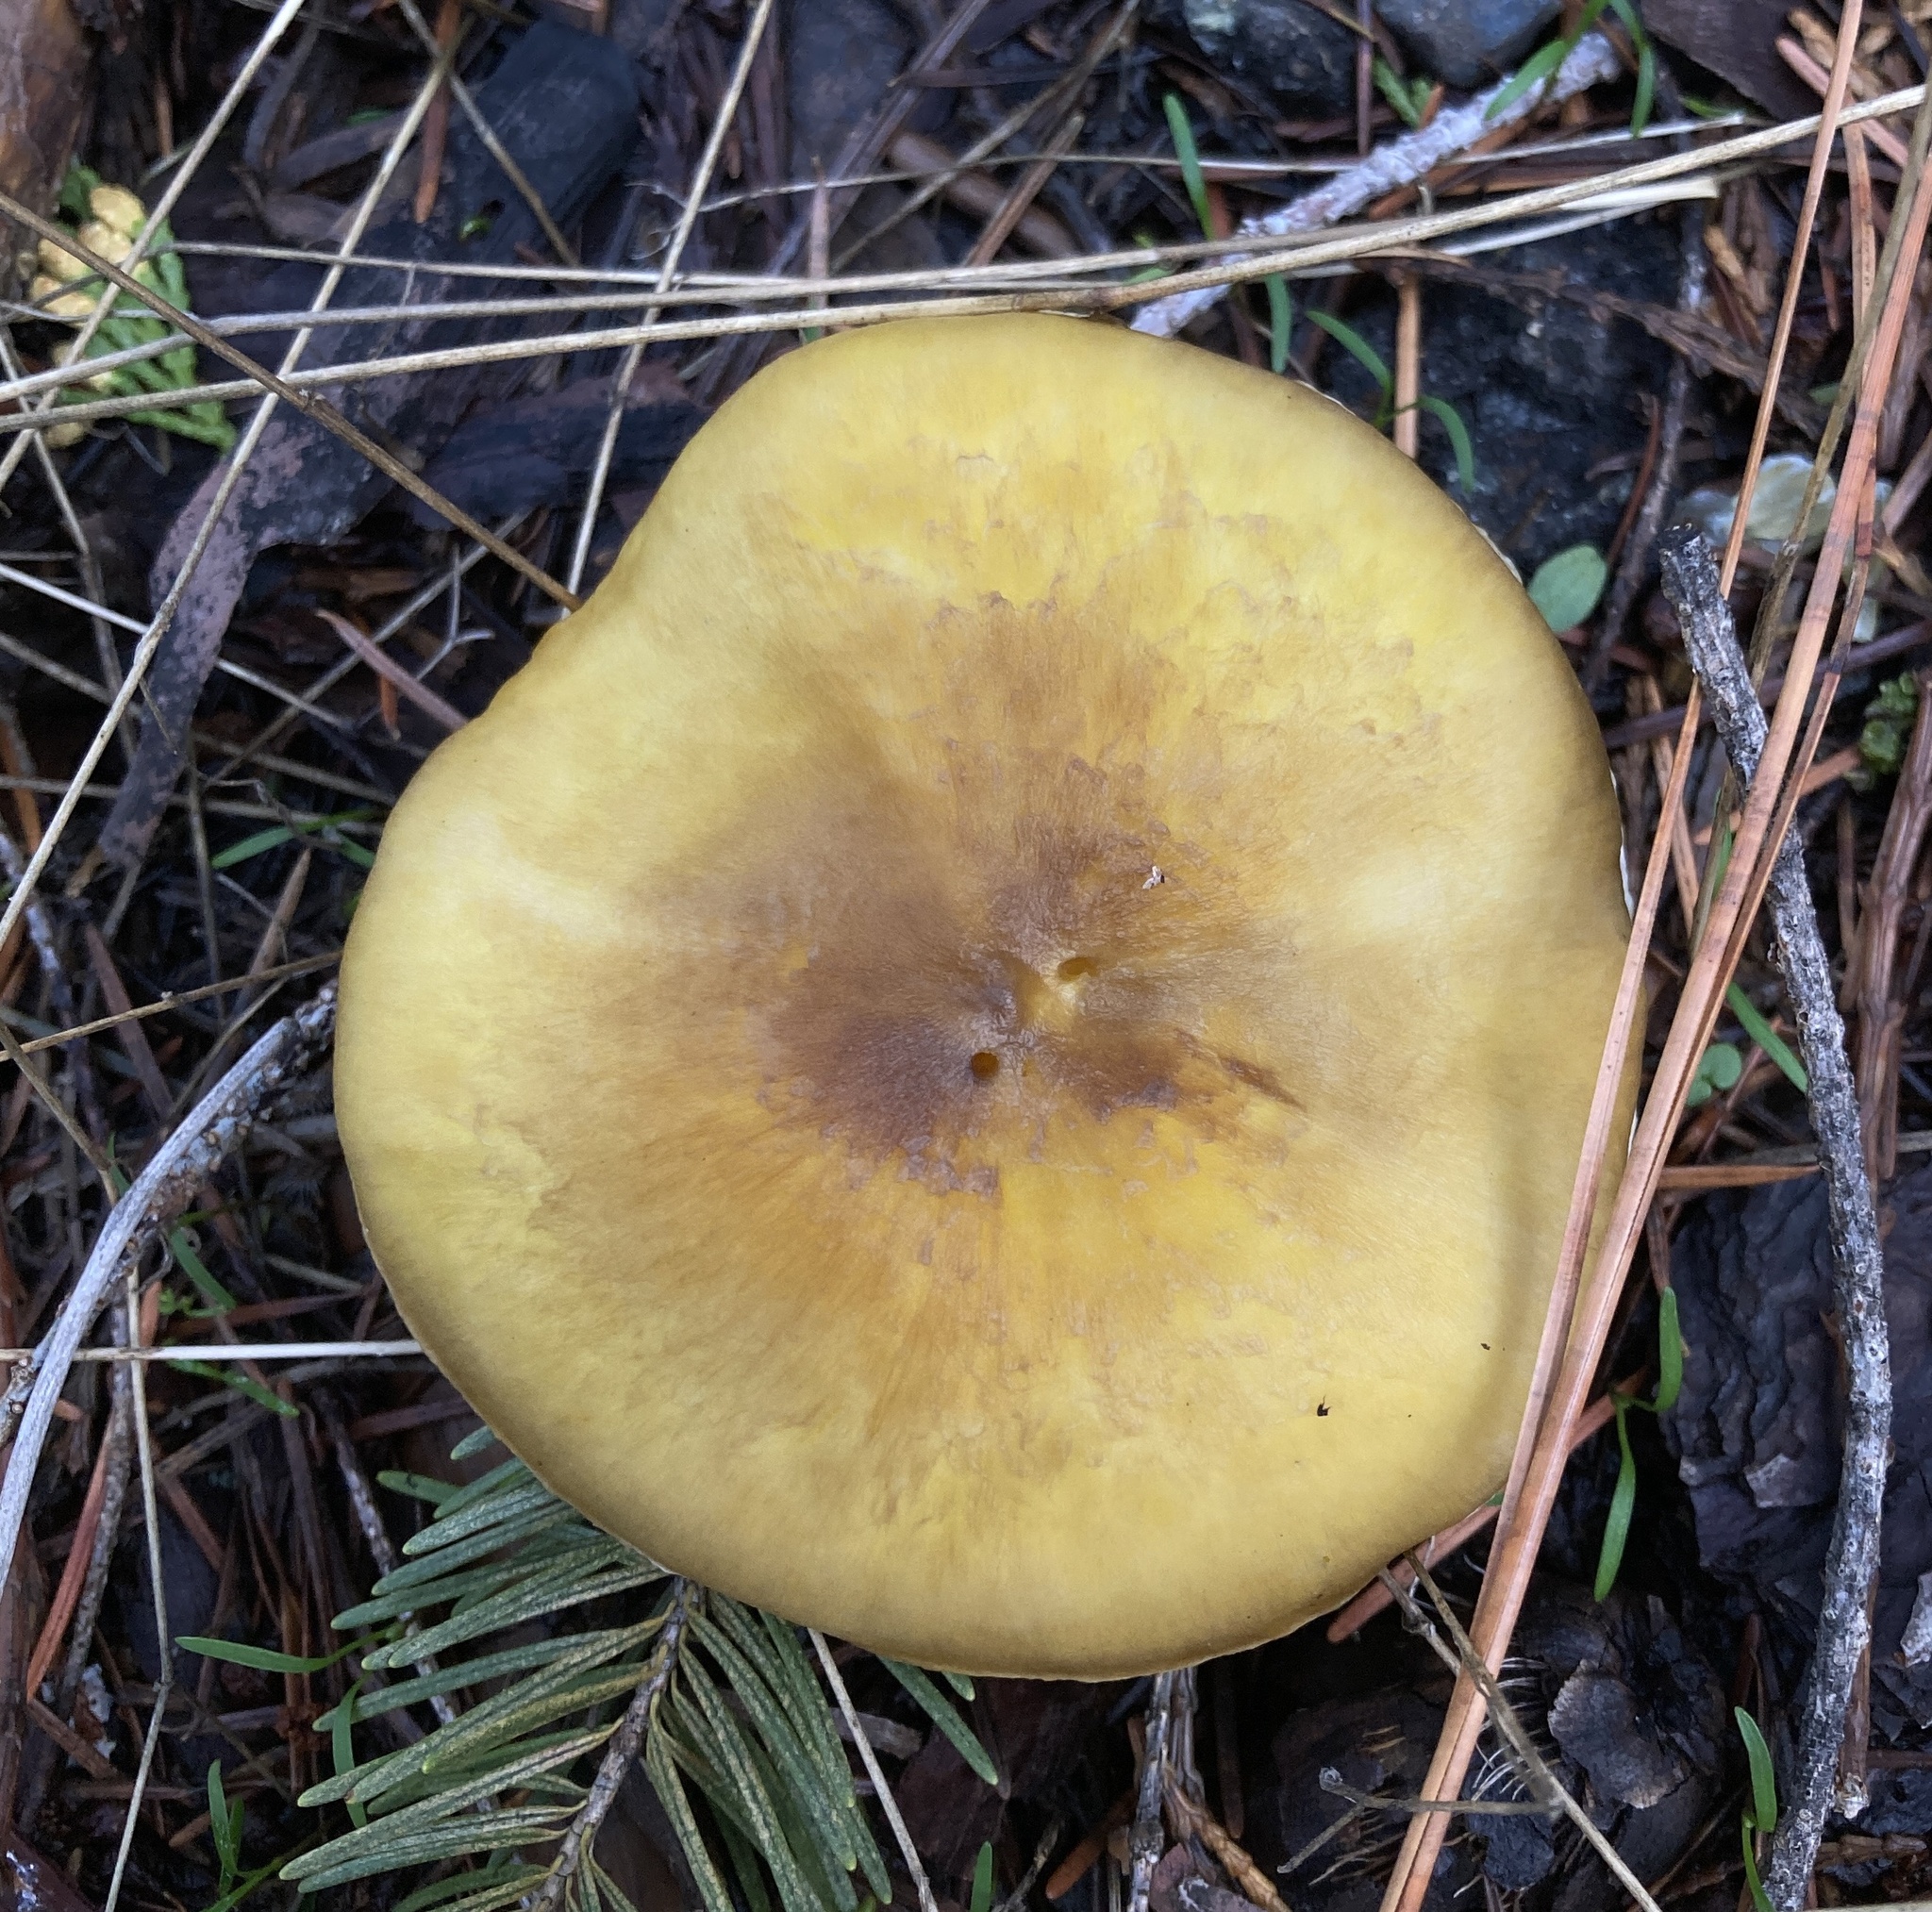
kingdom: Fungi
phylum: Basidiomycota
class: Agaricomycetes
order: Agaricales
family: Agaricaceae
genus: Floccularia
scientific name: Floccularia albolanaripes
